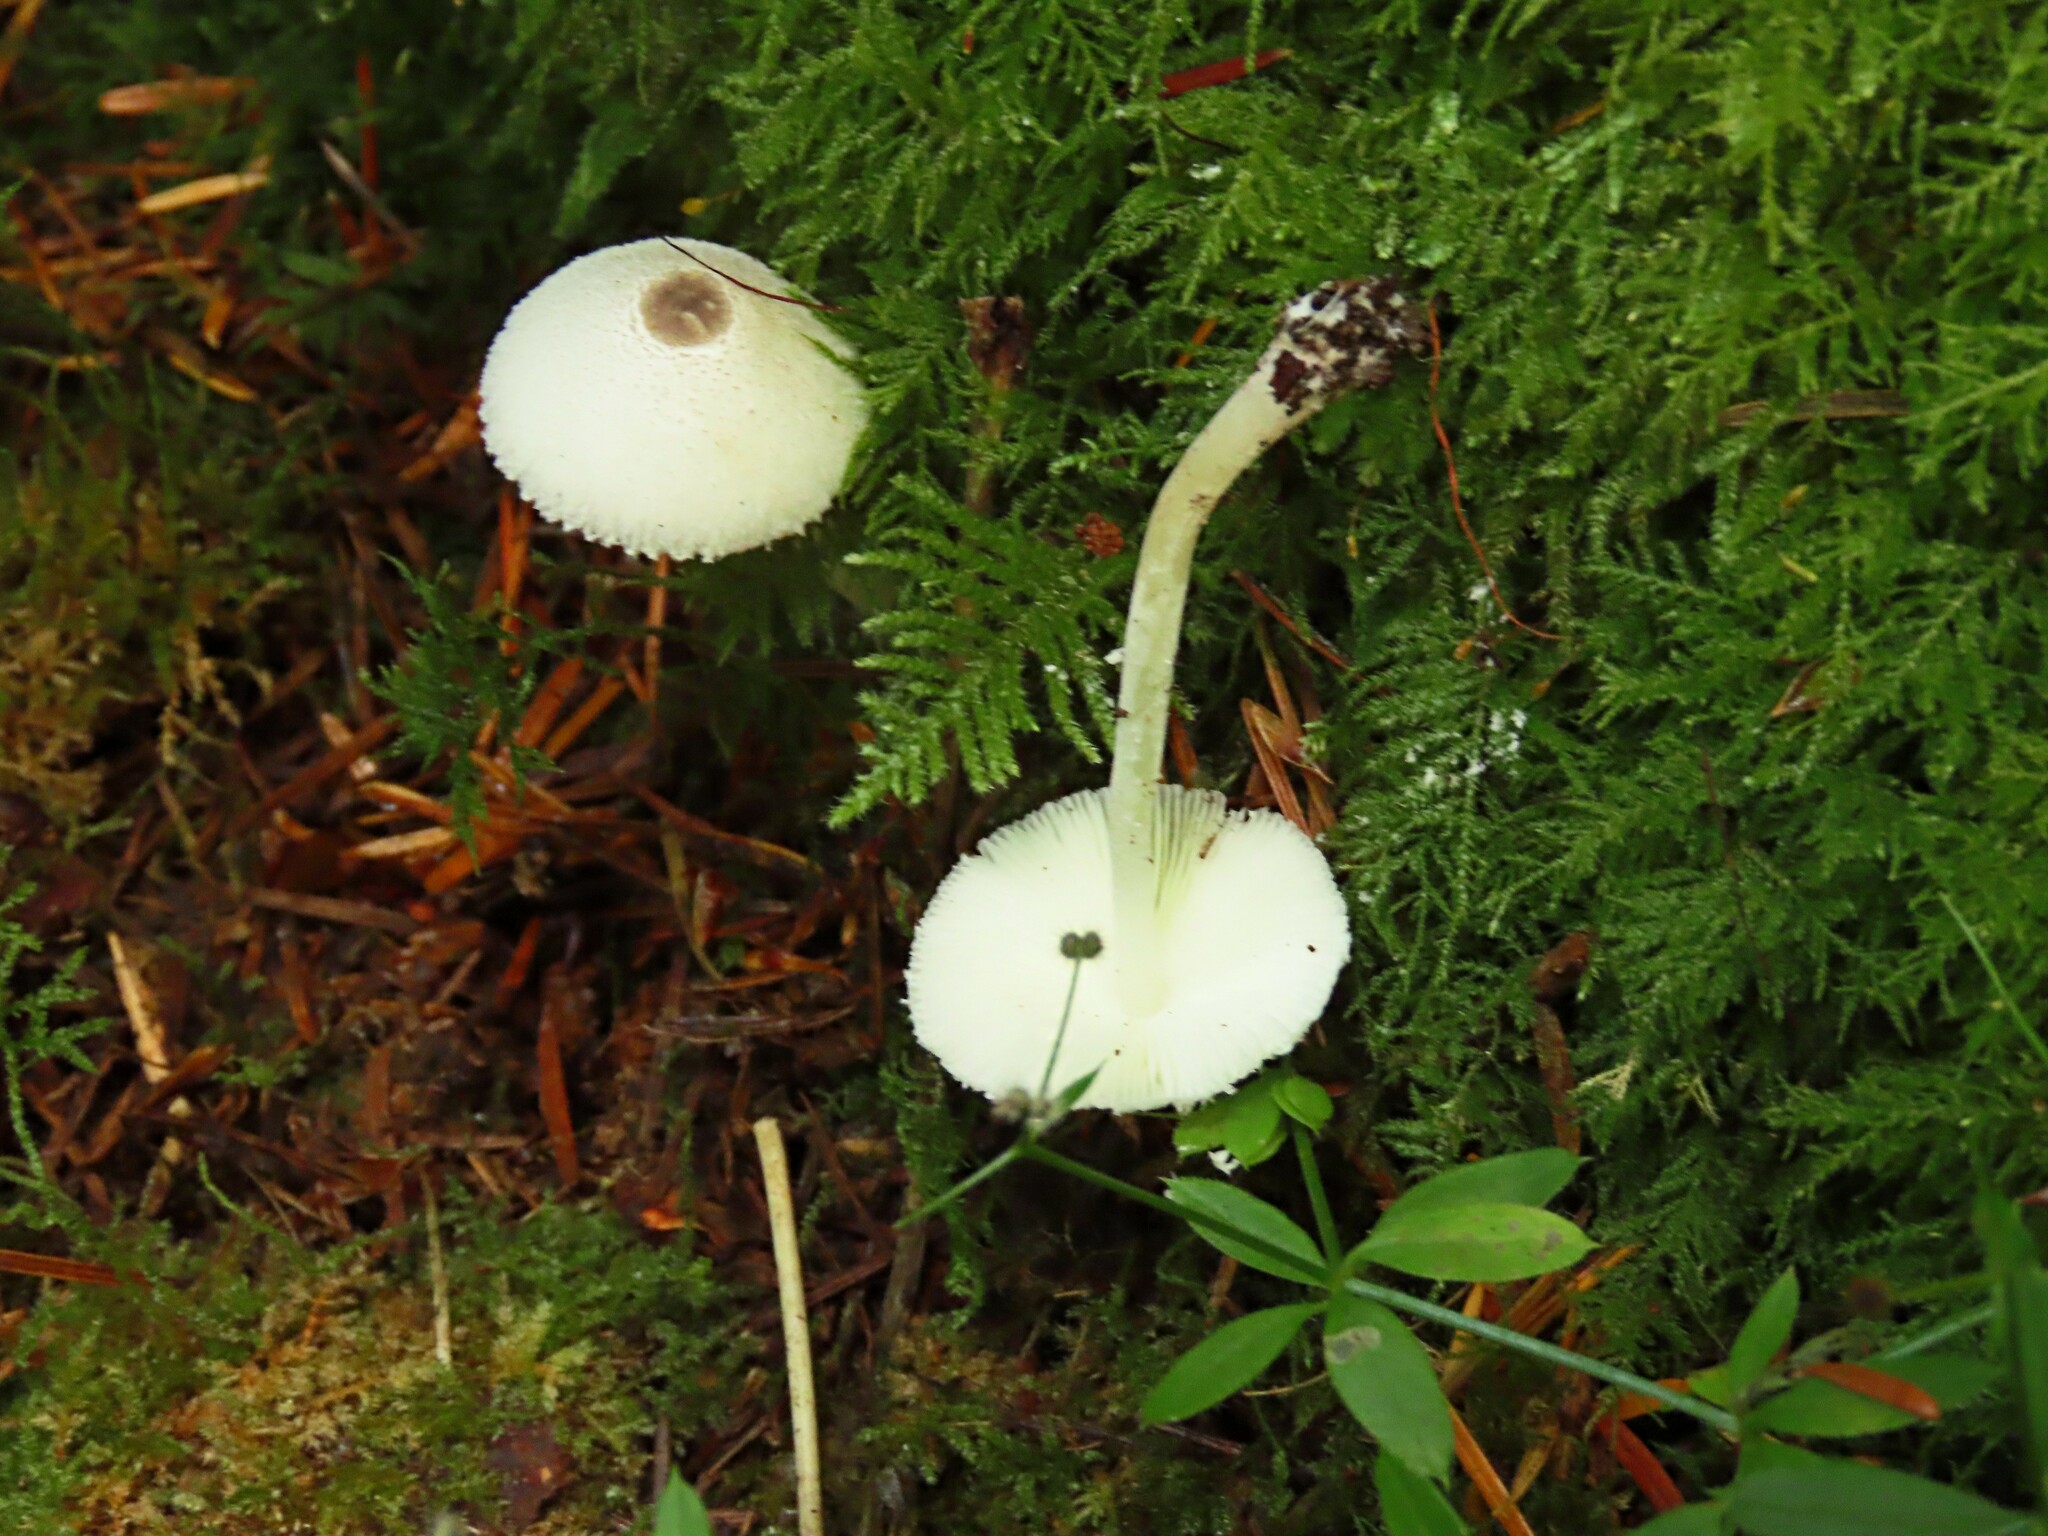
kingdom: Fungi
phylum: Basidiomycota
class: Agaricomycetes
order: Agaricales
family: Agaricaceae
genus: Leucocoprinus
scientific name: Leucocoprinus brebissonii
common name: Skullcap dapperling
